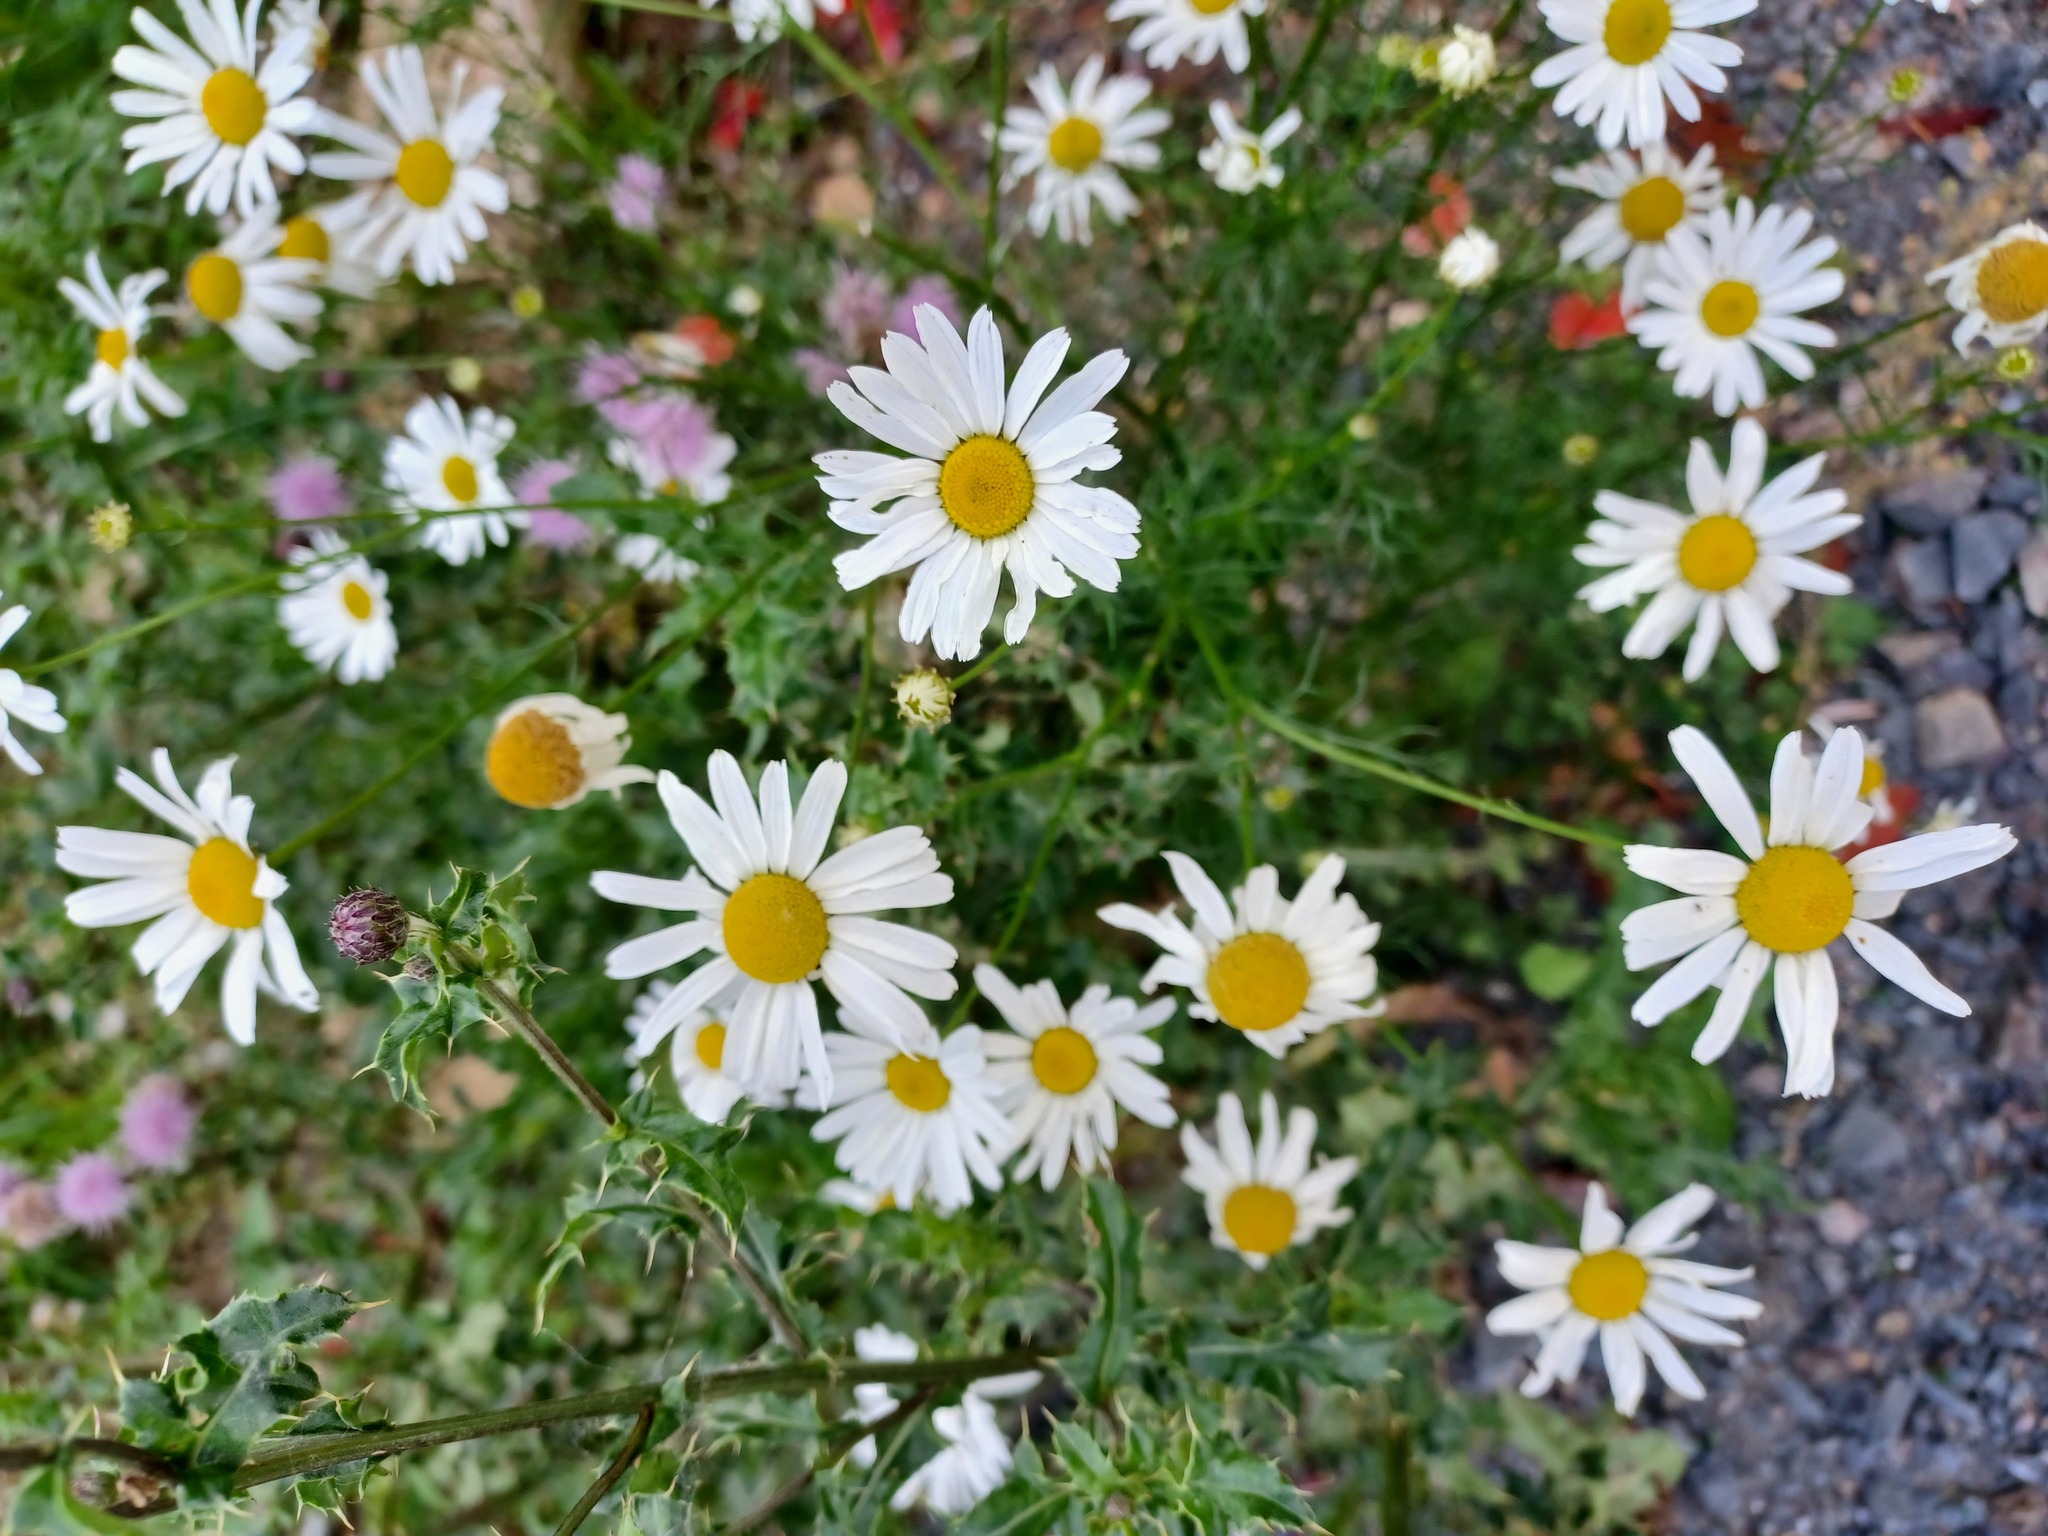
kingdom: Plantae
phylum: Tracheophyta
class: Magnoliopsida
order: Asterales
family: Asteraceae
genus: Tripleurospermum
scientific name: Tripleurospermum inodorum
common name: Scentless mayweed
